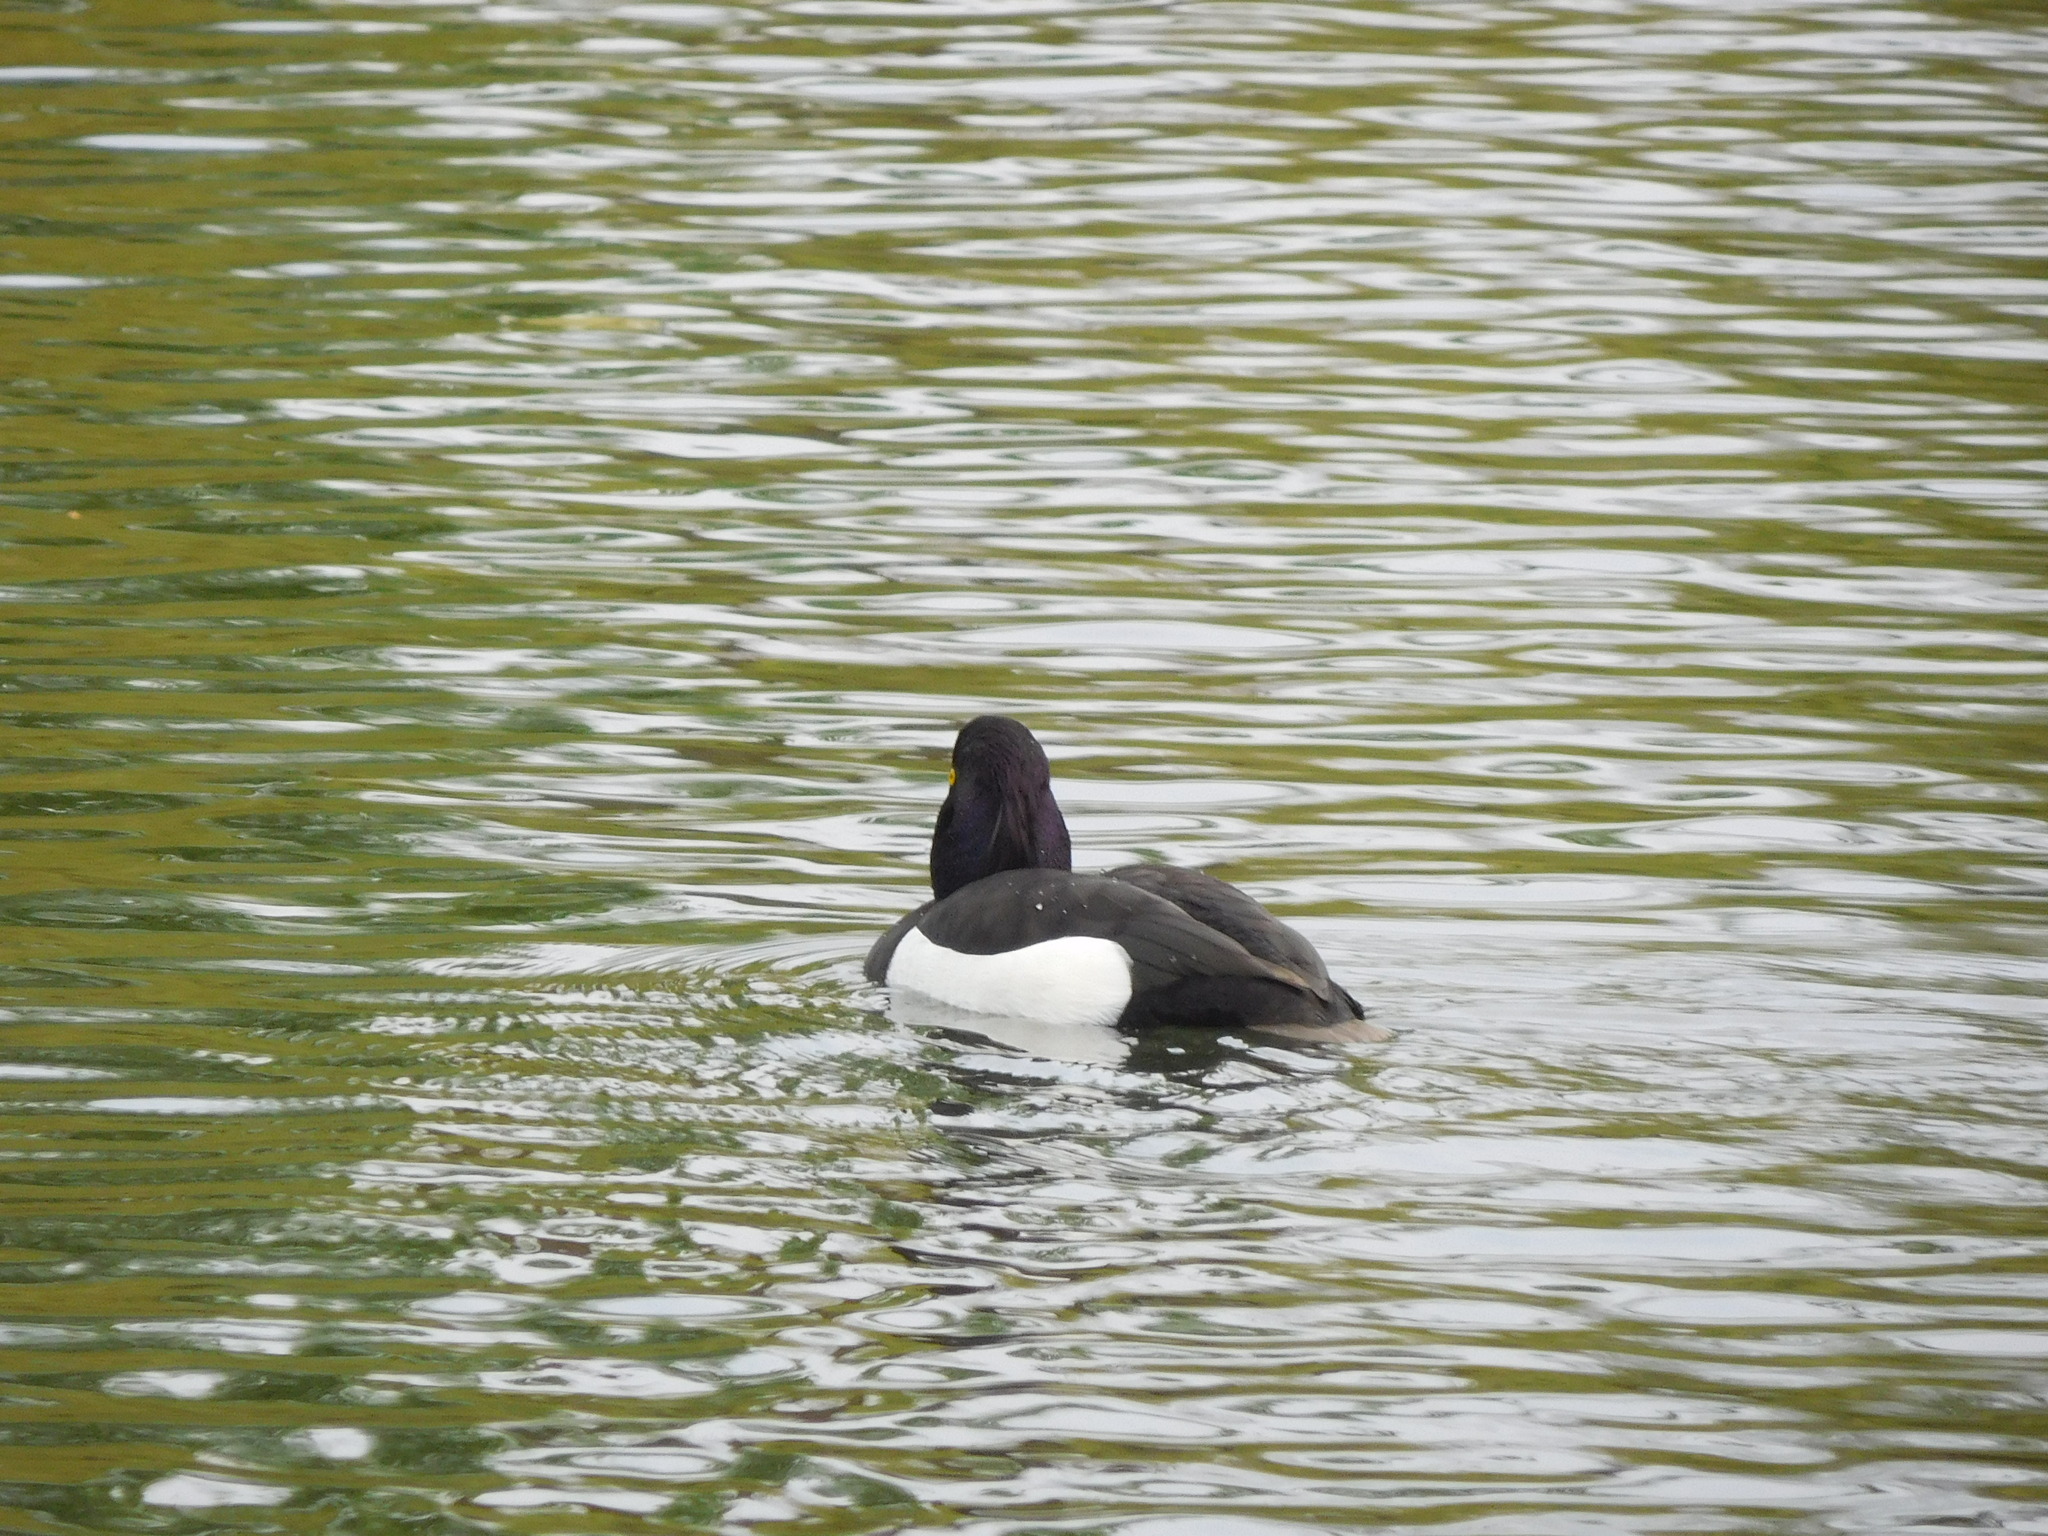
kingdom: Animalia
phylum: Chordata
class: Aves
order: Anseriformes
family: Anatidae
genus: Aythya
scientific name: Aythya fuligula
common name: Tufted duck
